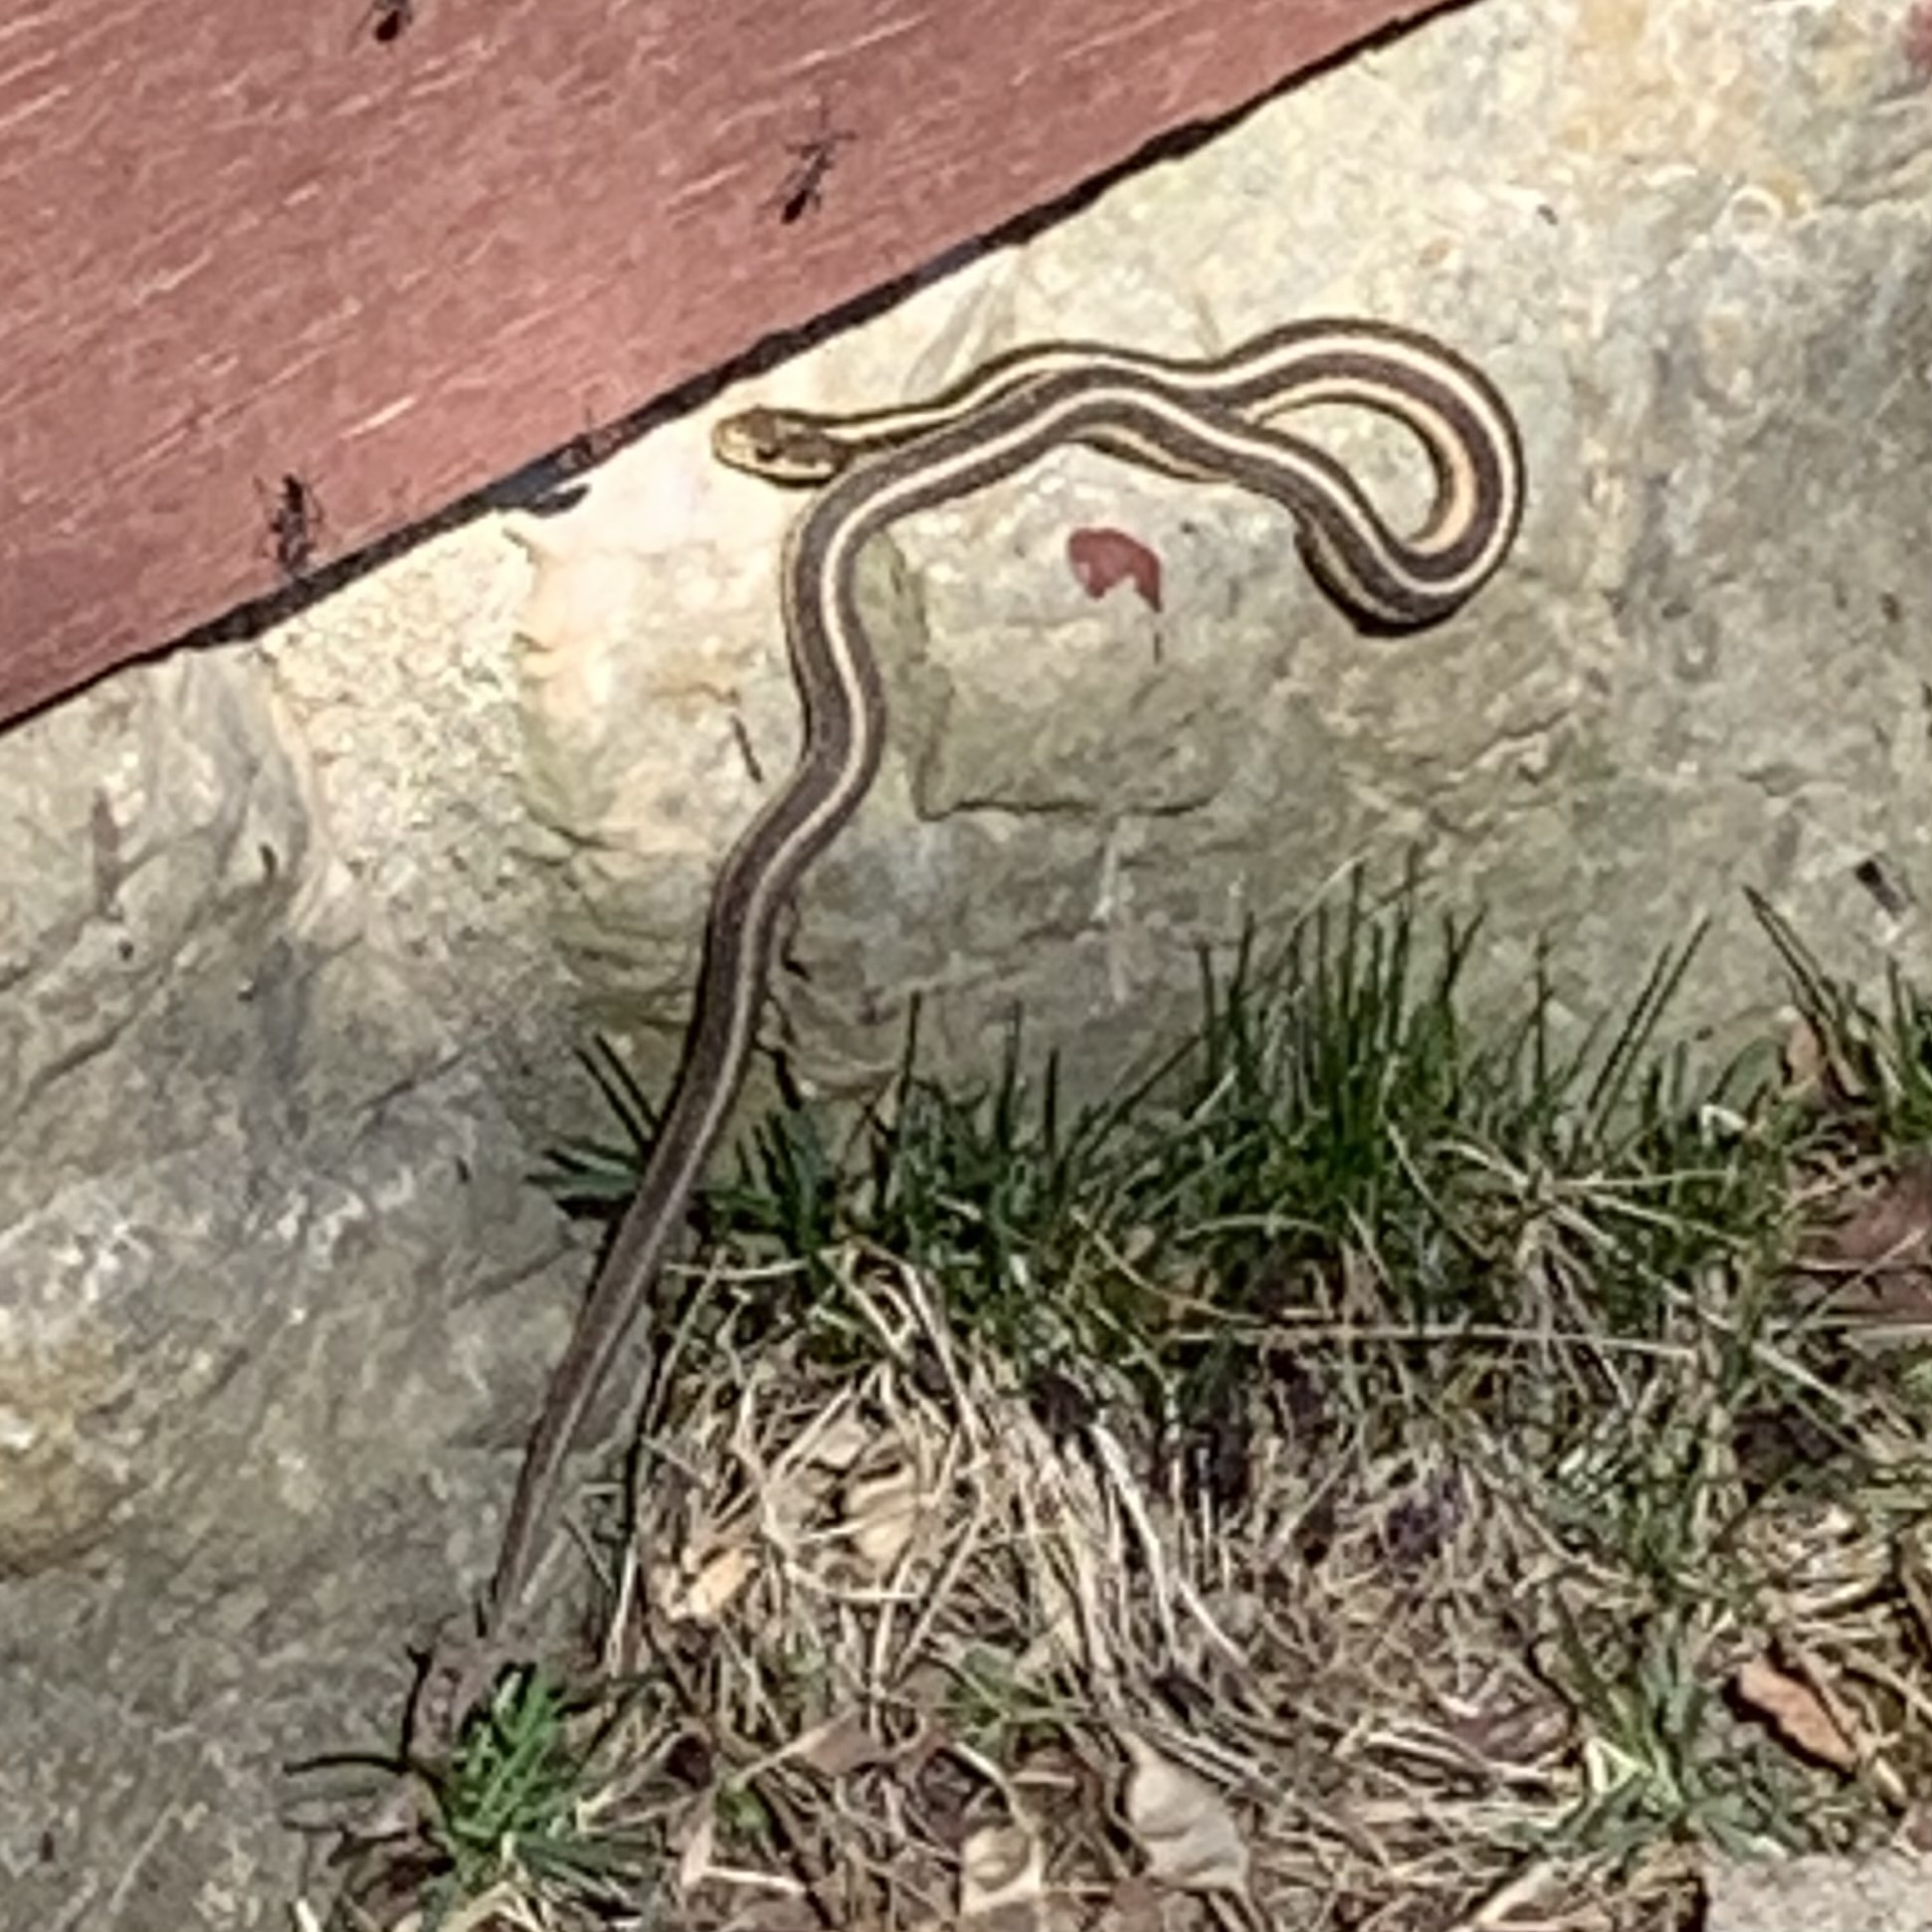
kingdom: Animalia
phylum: Chordata
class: Squamata
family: Colubridae
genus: Thamnophis
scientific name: Thamnophis sirtalis
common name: Common garter snake
